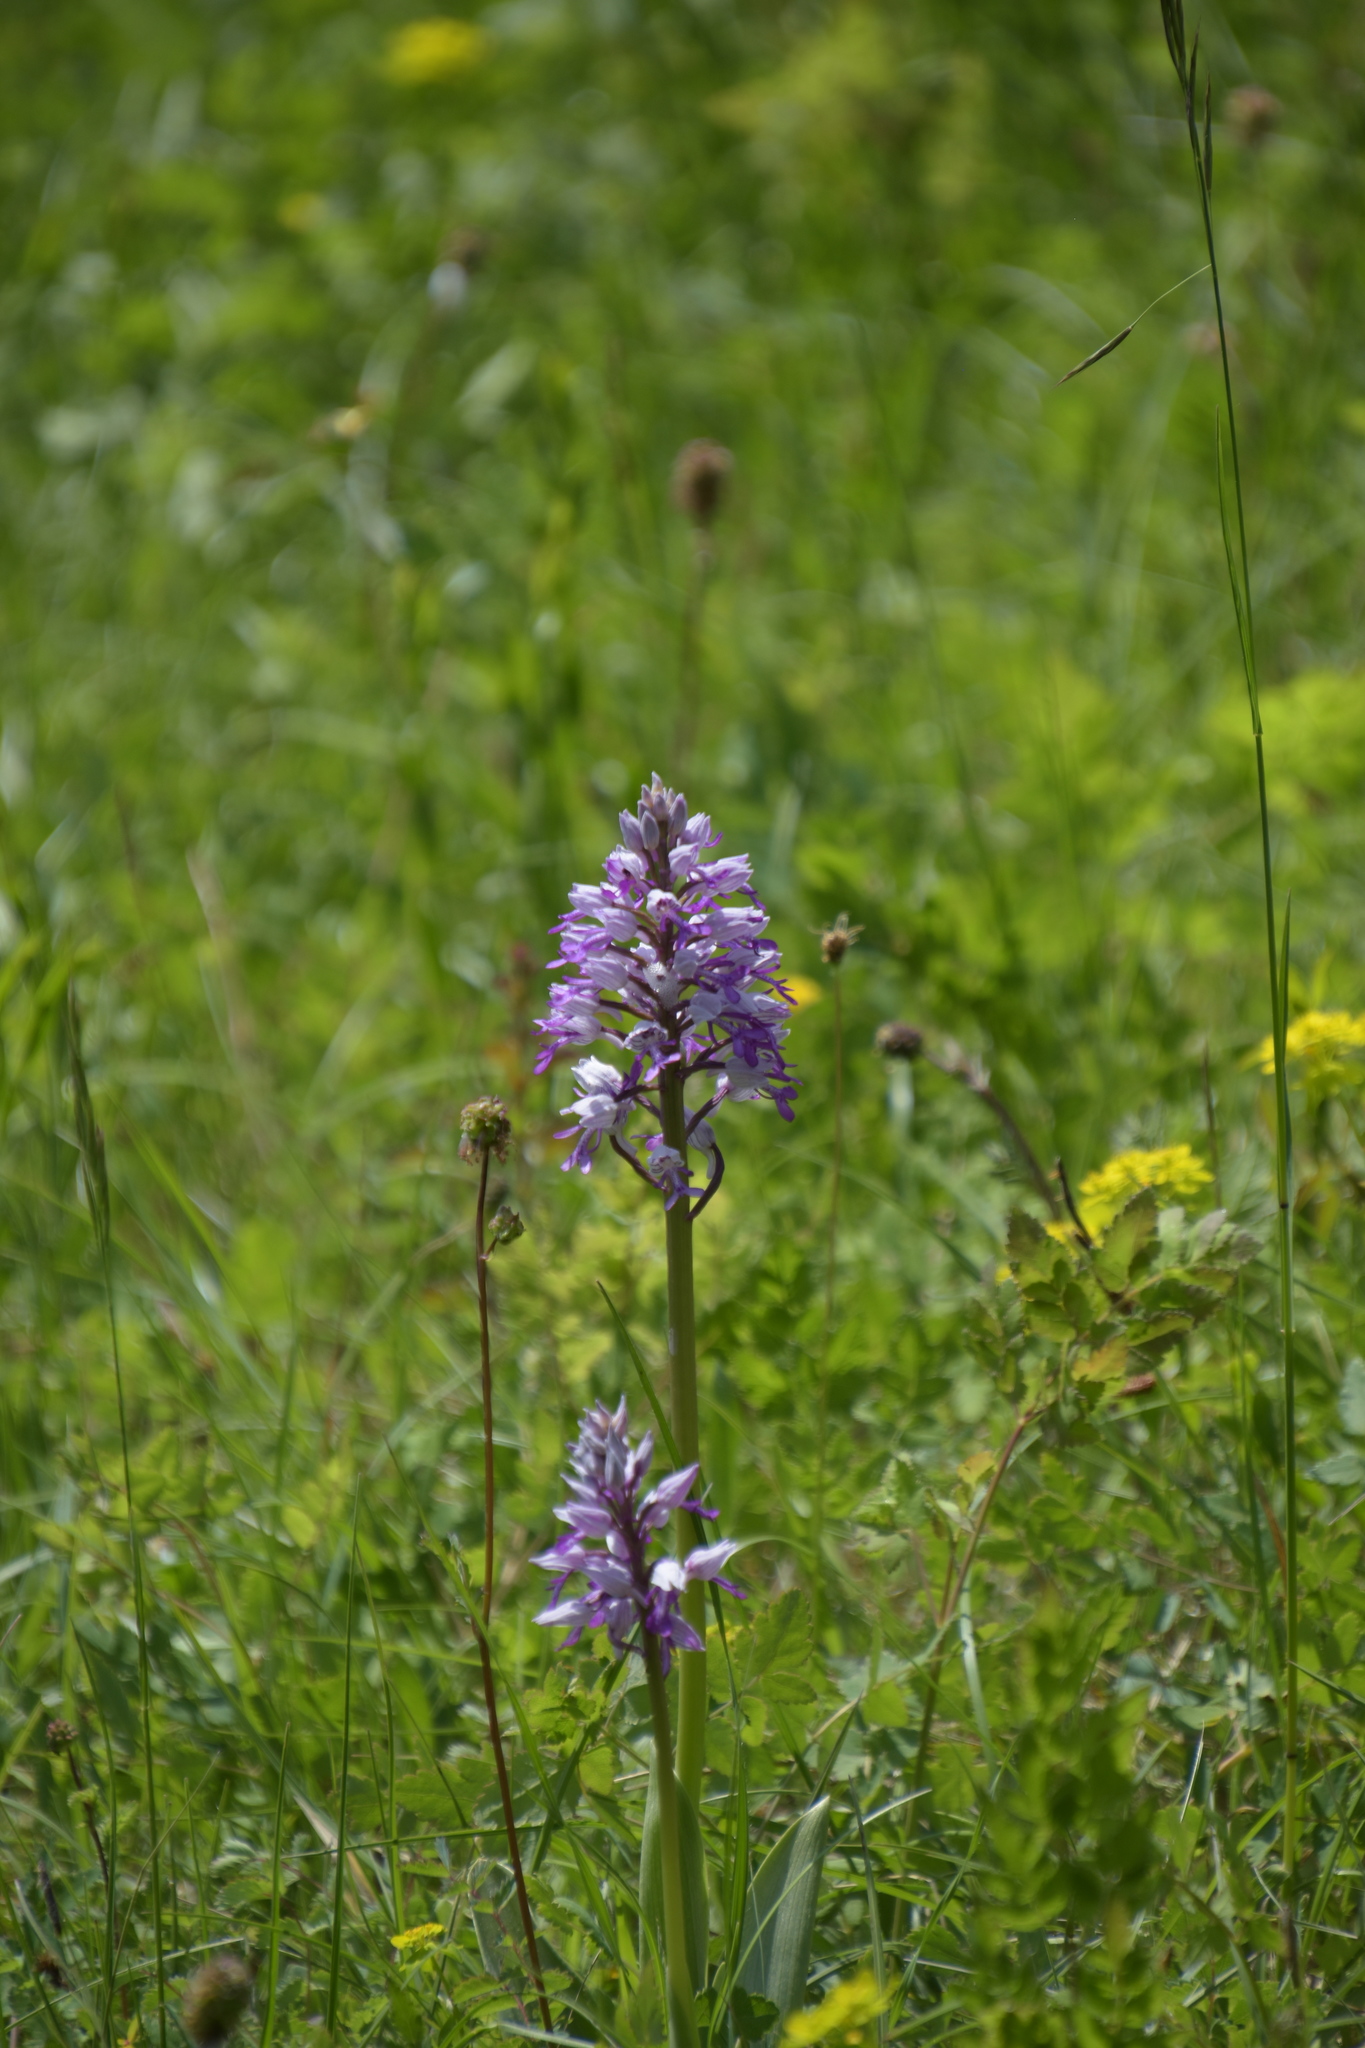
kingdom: Plantae
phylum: Tracheophyta
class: Liliopsida
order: Asparagales
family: Orchidaceae
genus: Orchis
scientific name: Orchis militaris
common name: Military orchid
